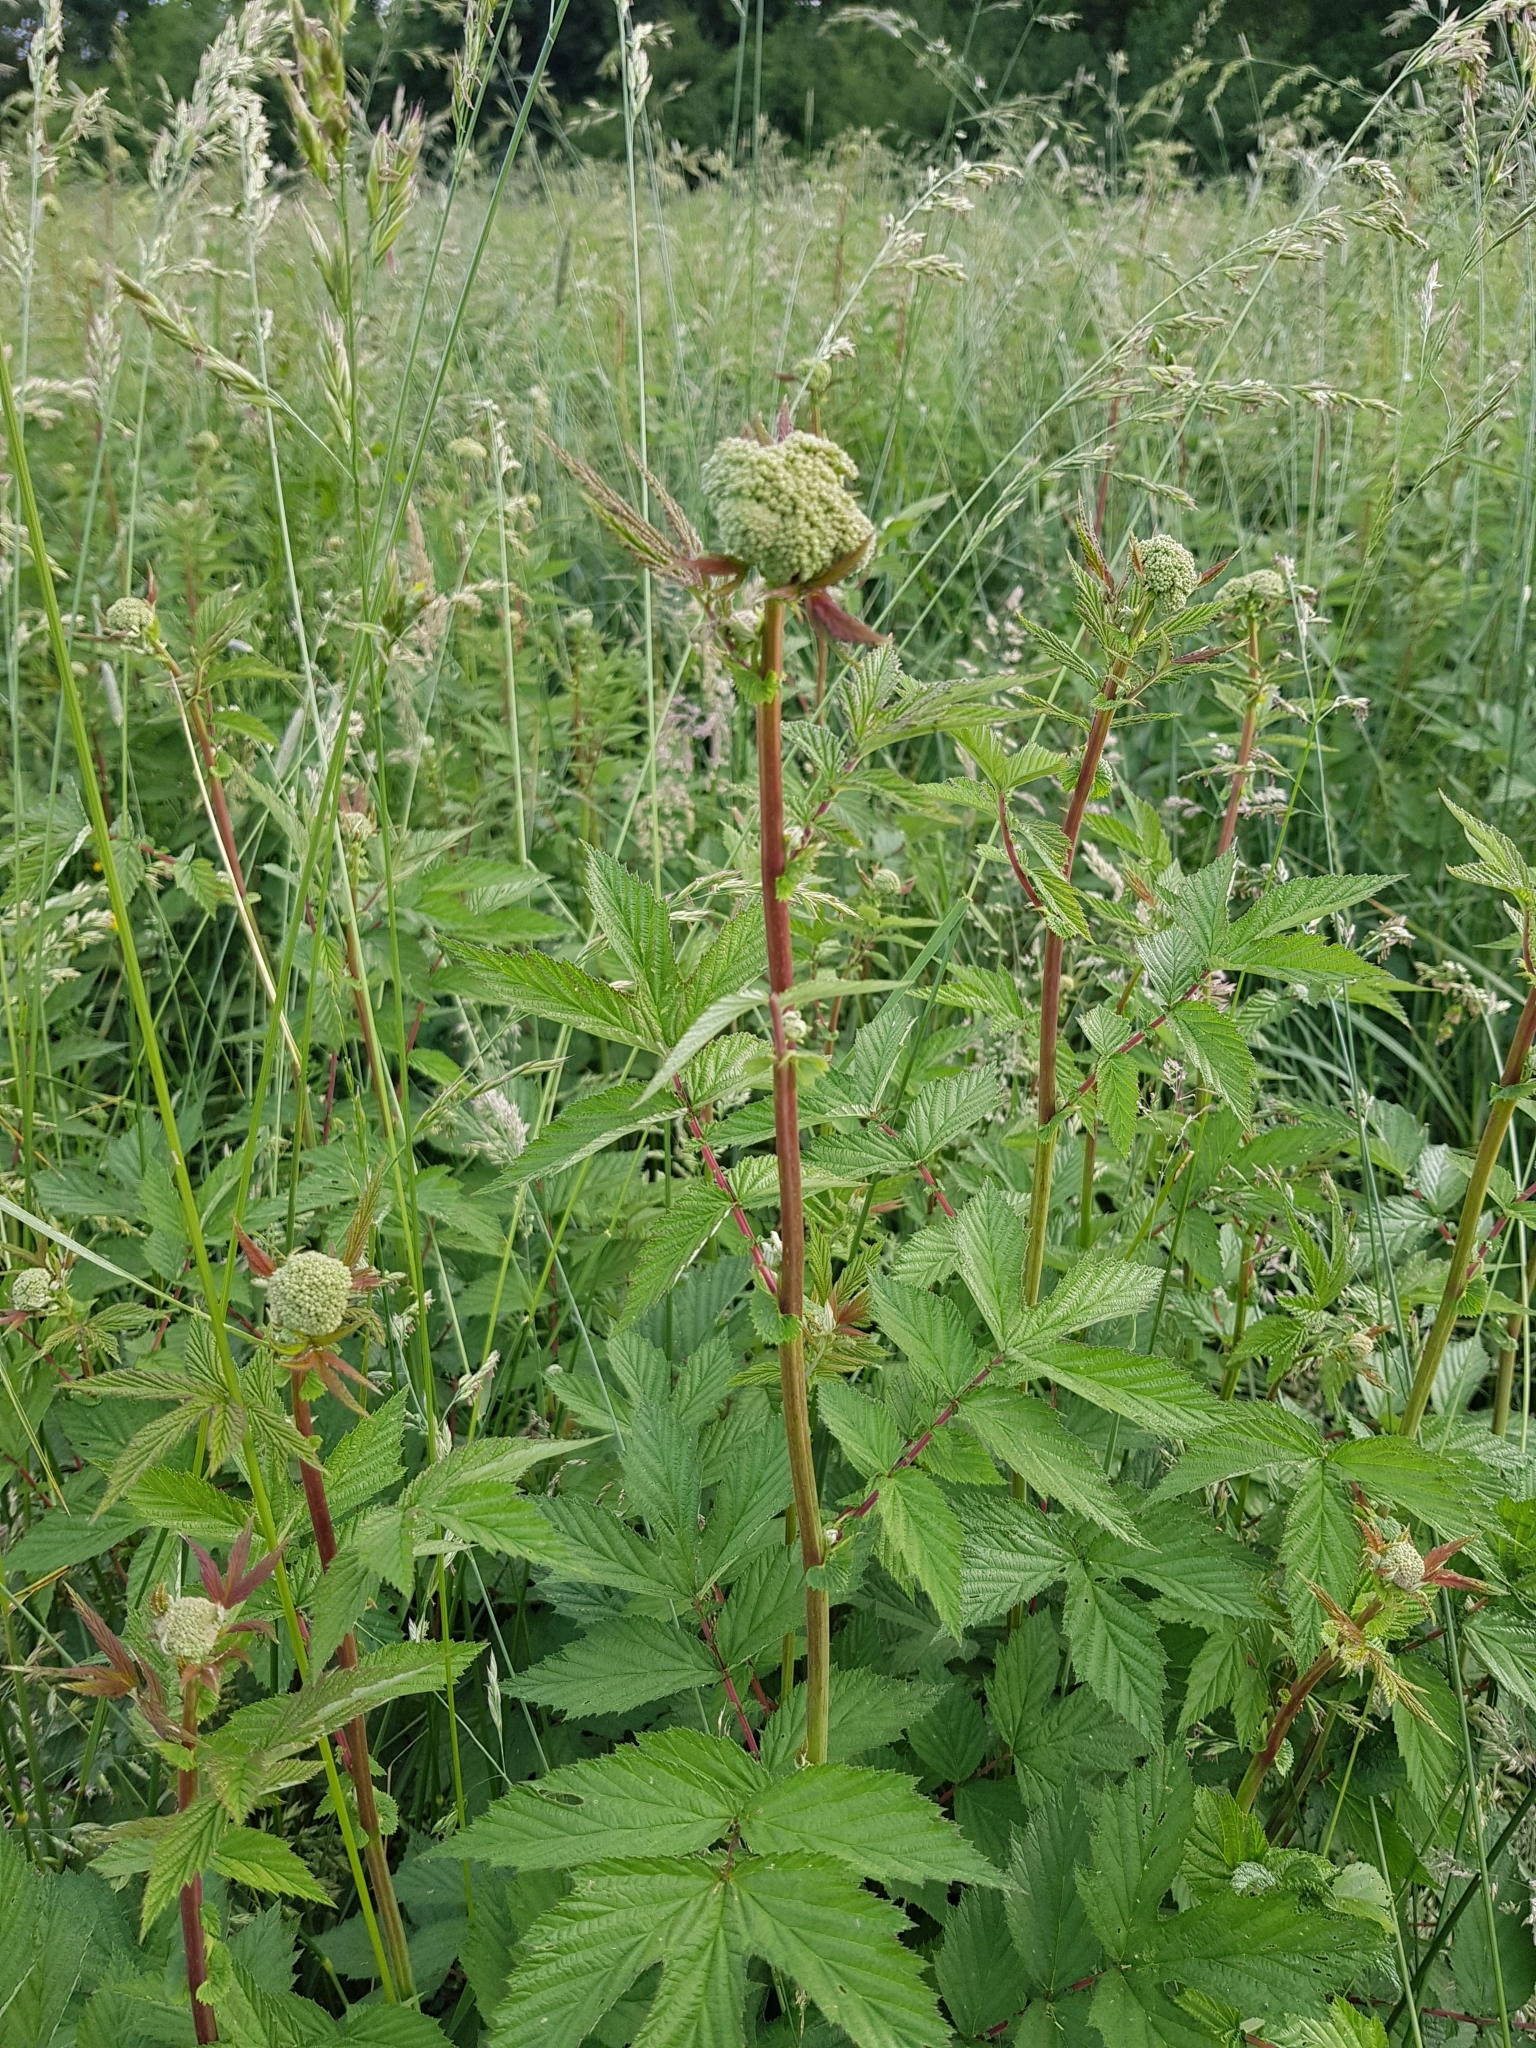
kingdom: Plantae
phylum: Tracheophyta
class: Magnoliopsida
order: Rosales
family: Rosaceae
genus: Filipendula
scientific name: Filipendula ulmaria
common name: Meadowsweet
